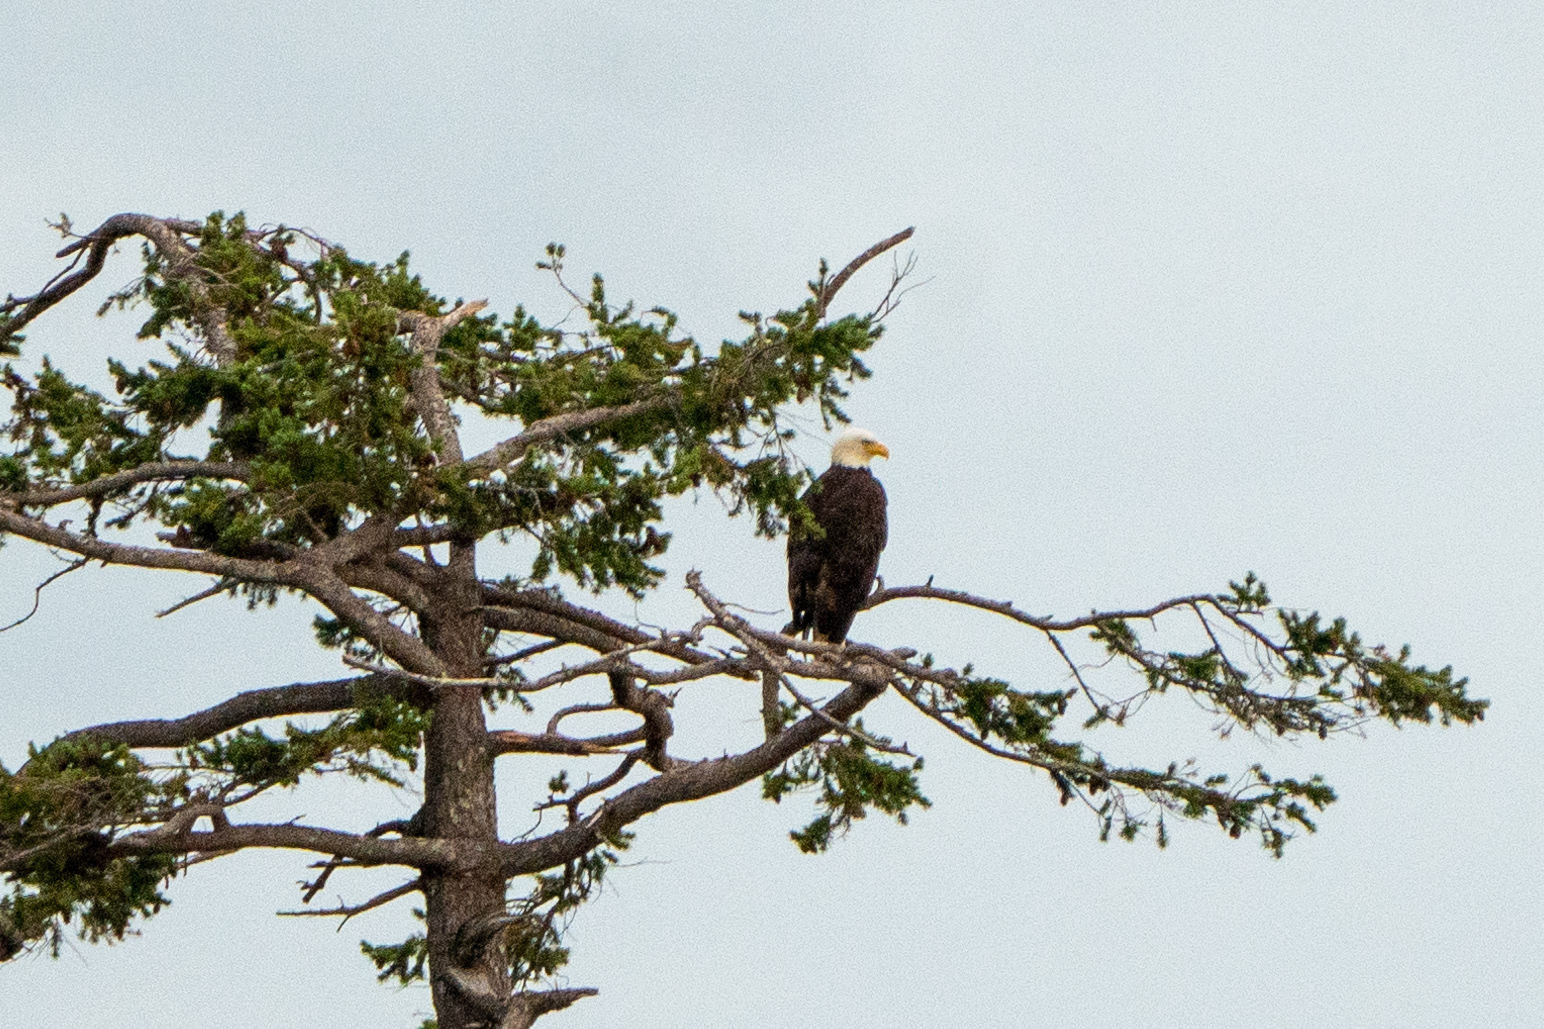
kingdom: Animalia
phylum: Chordata
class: Aves
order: Accipitriformes
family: Accipitridae
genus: Haliaeetus
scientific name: Haliaeetus leucocephalus
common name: Bald eagle
